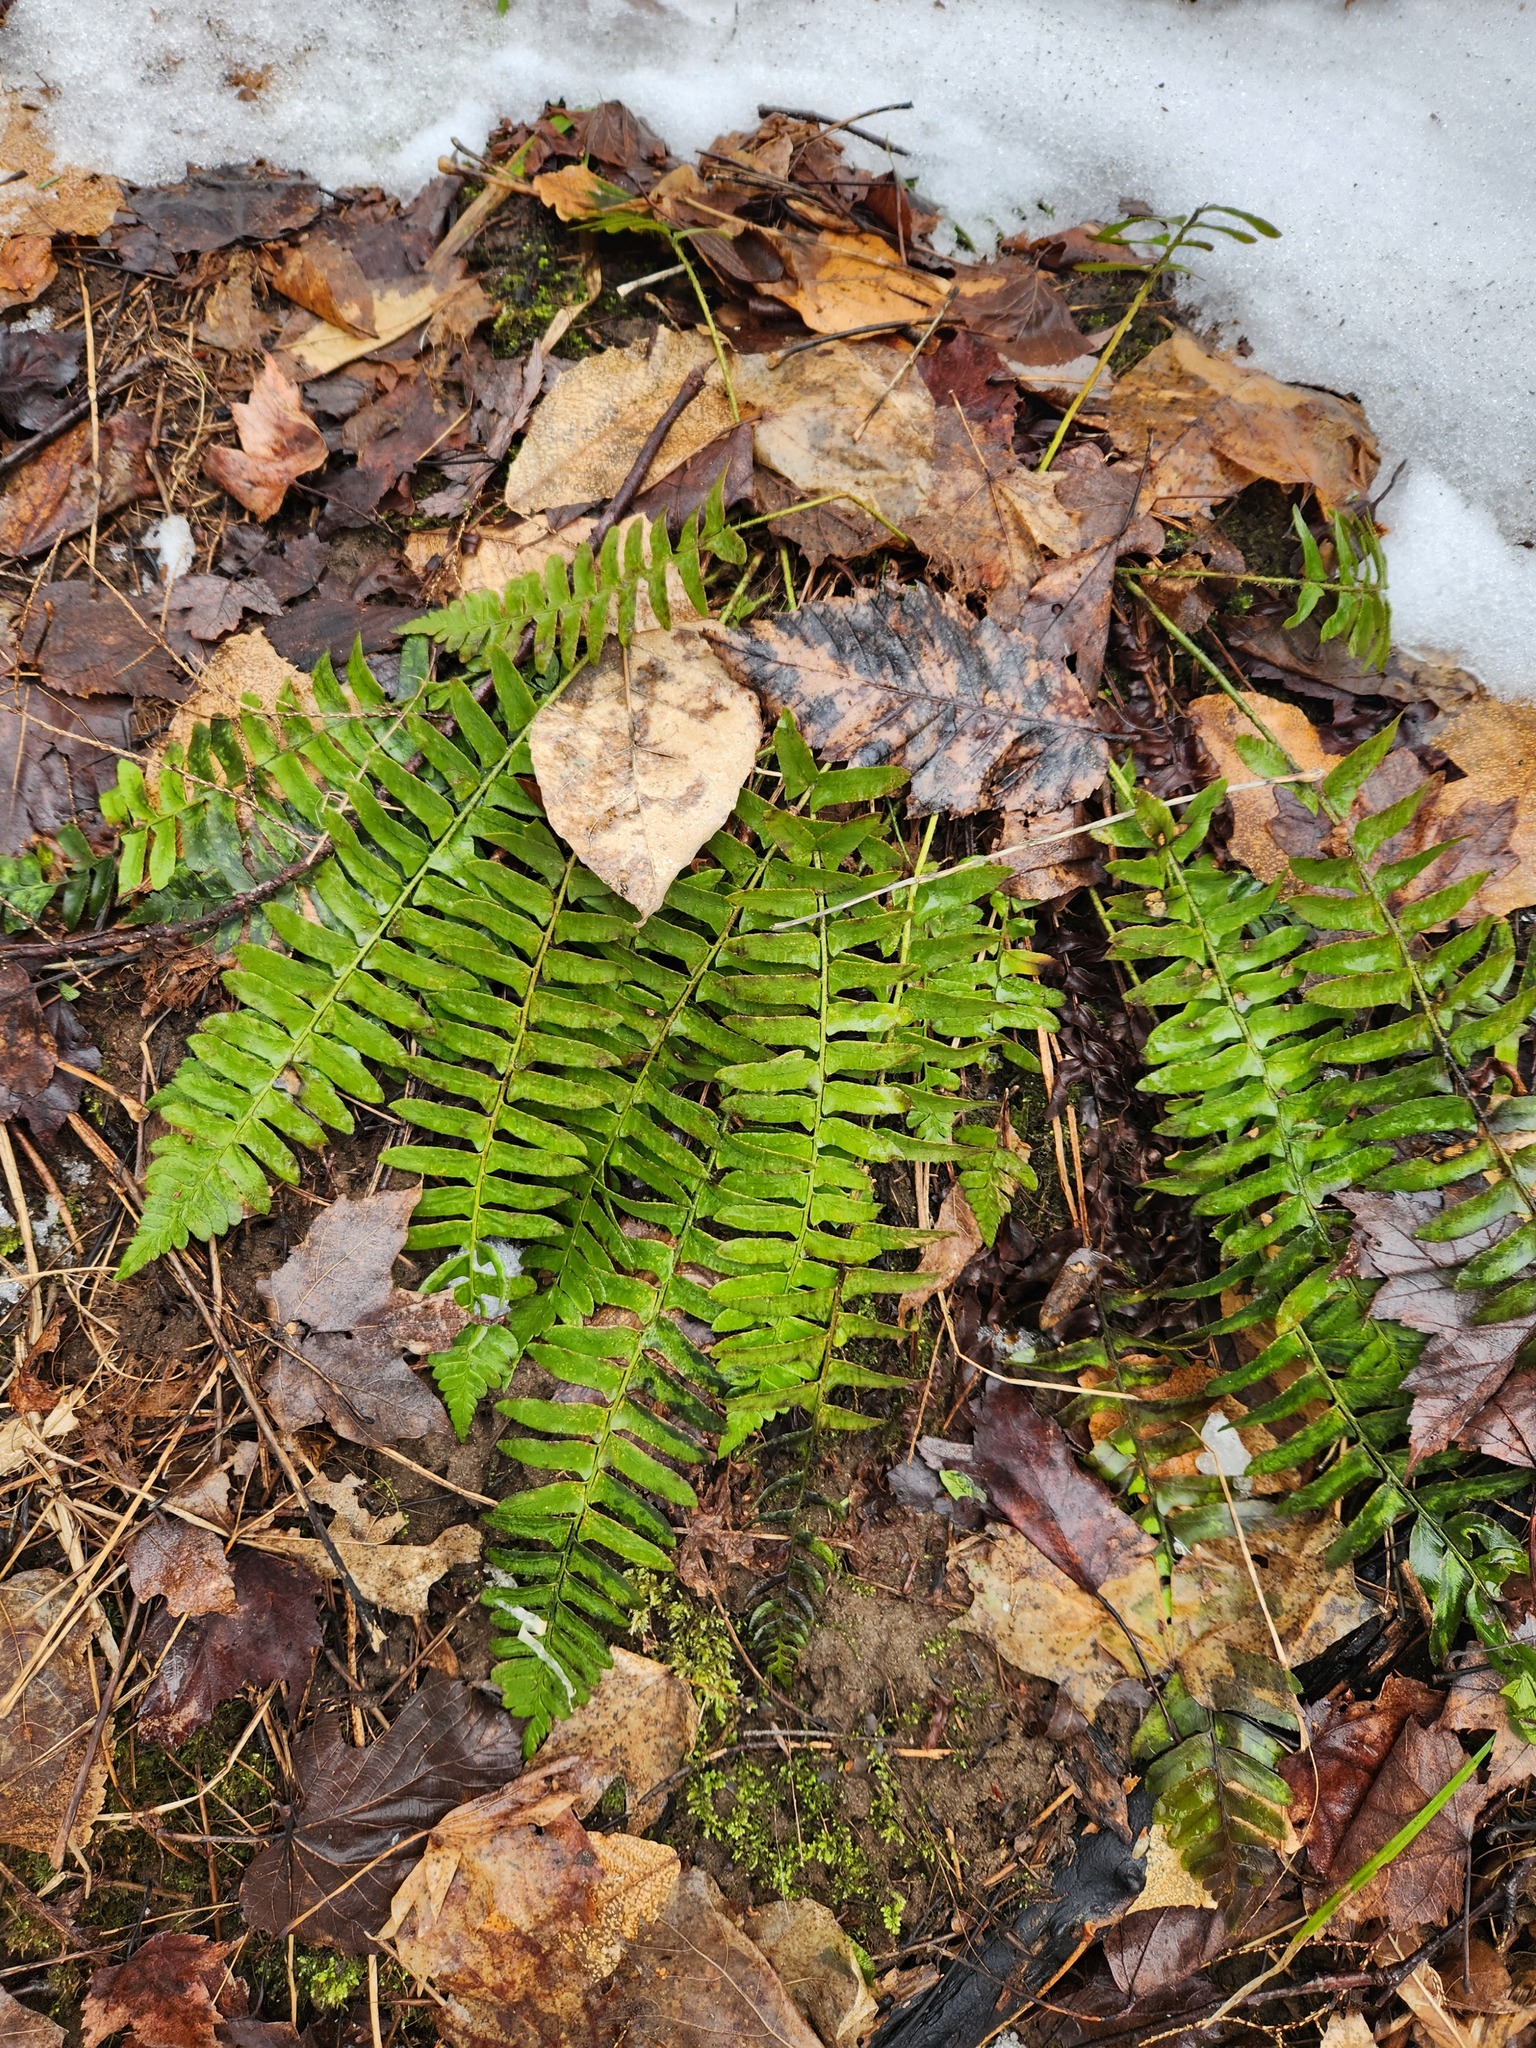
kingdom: Plantae
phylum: Tracheophyta
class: Polypodiopsida
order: Polypodiales
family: Dryopteridaceae
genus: Polystichum
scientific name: Polystichum acrostichoides
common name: Christmas fern
